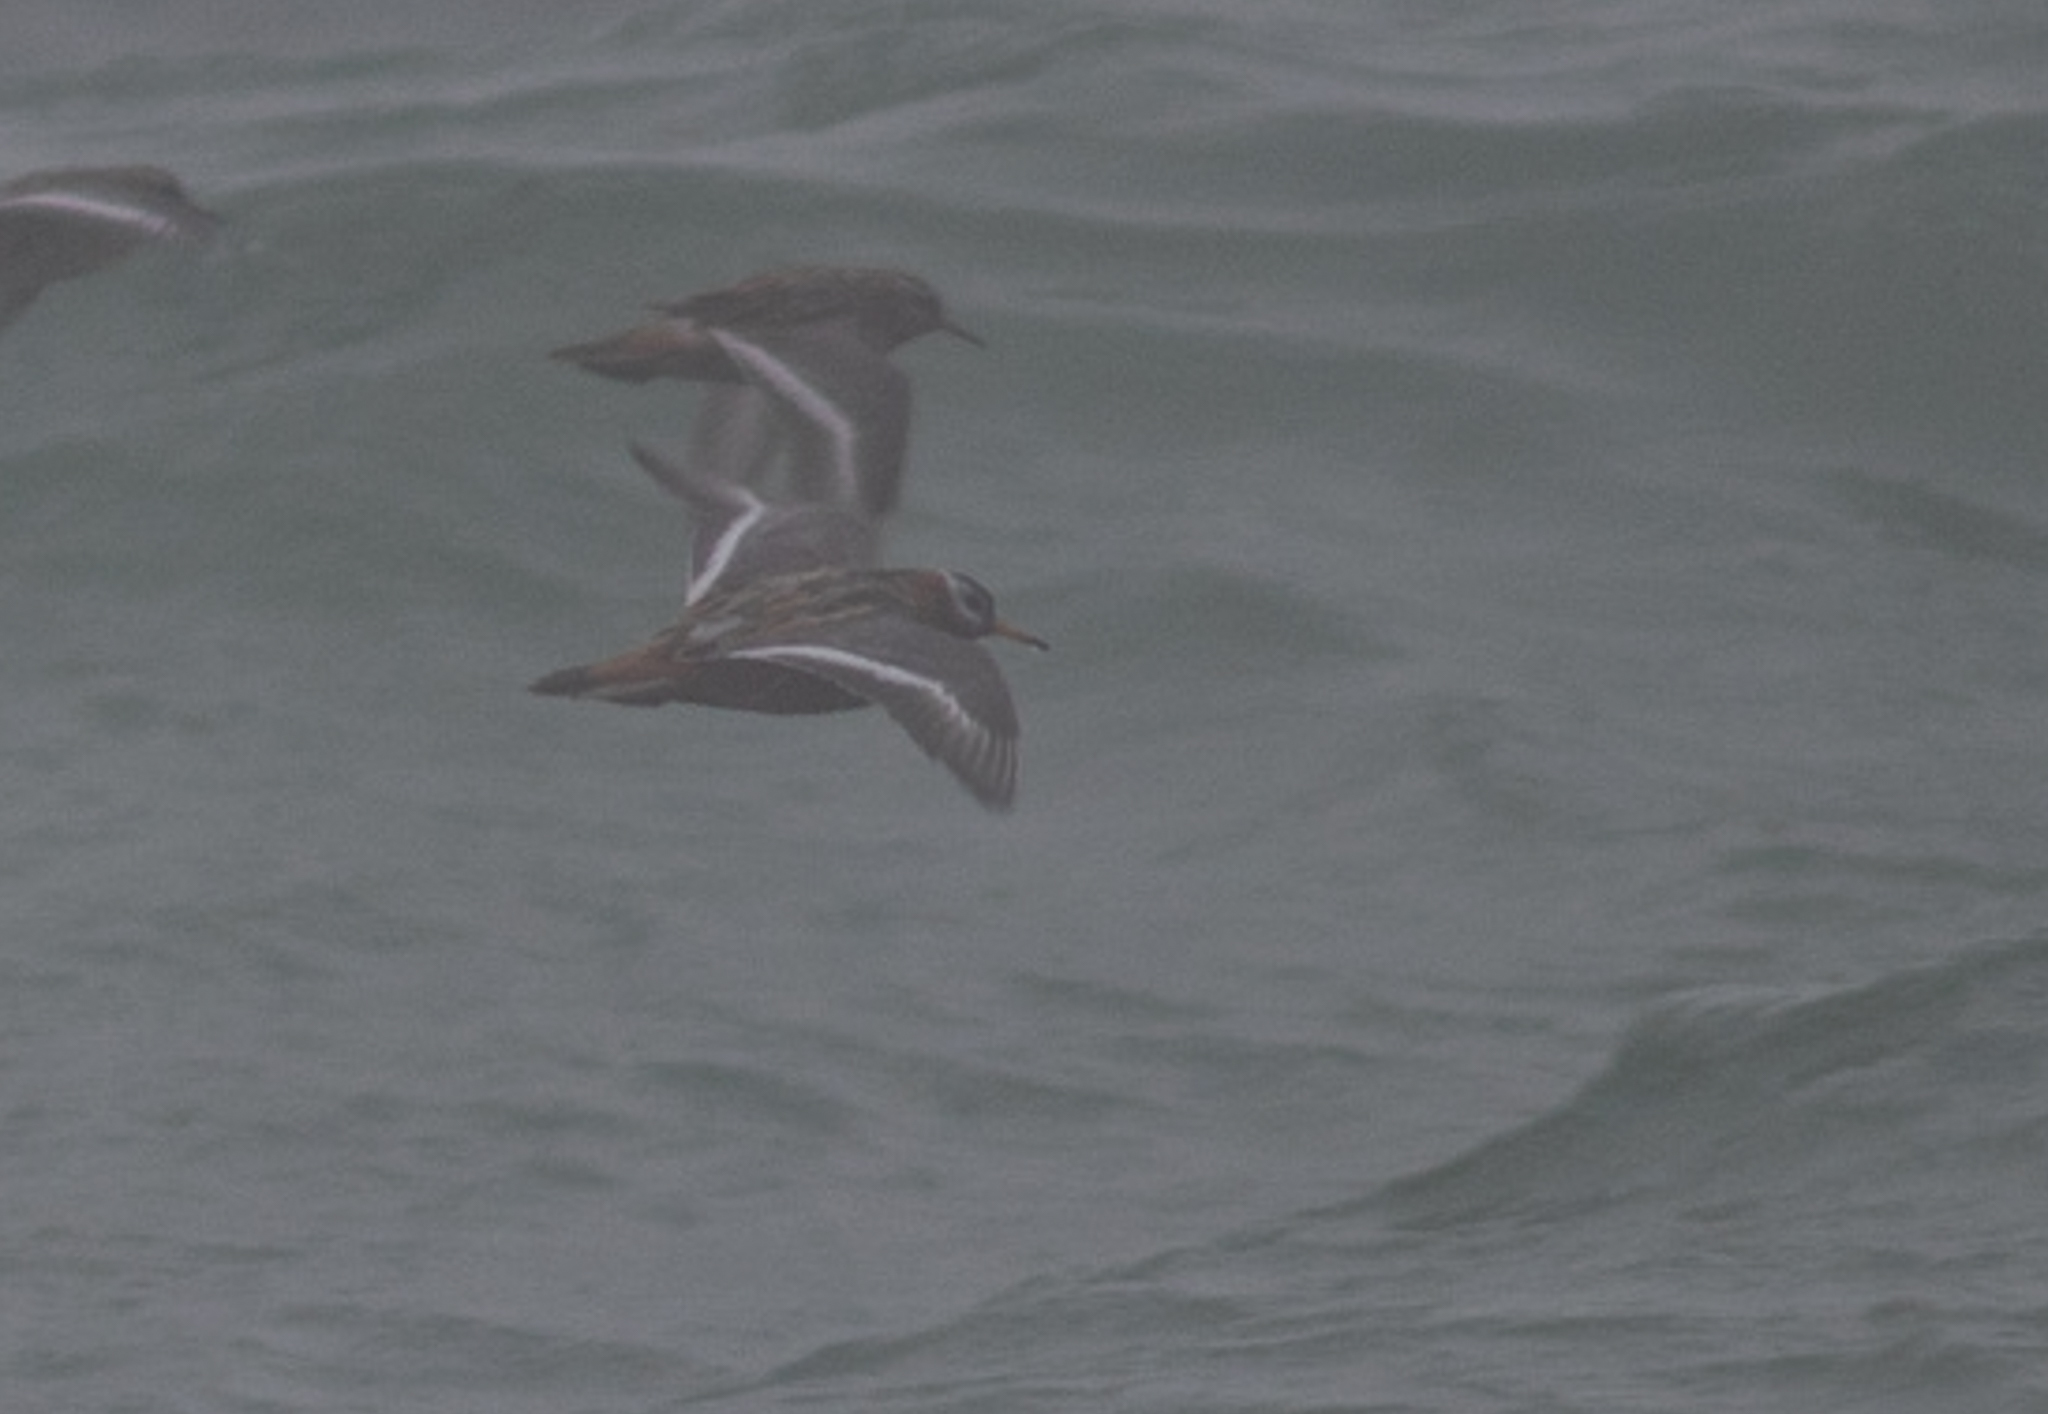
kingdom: Animalia
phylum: Chordata
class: Aves
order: Charadriiformes
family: Scolopacidae
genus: Phalaropus
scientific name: Phalaropus fulicarius
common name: Red phalarope
